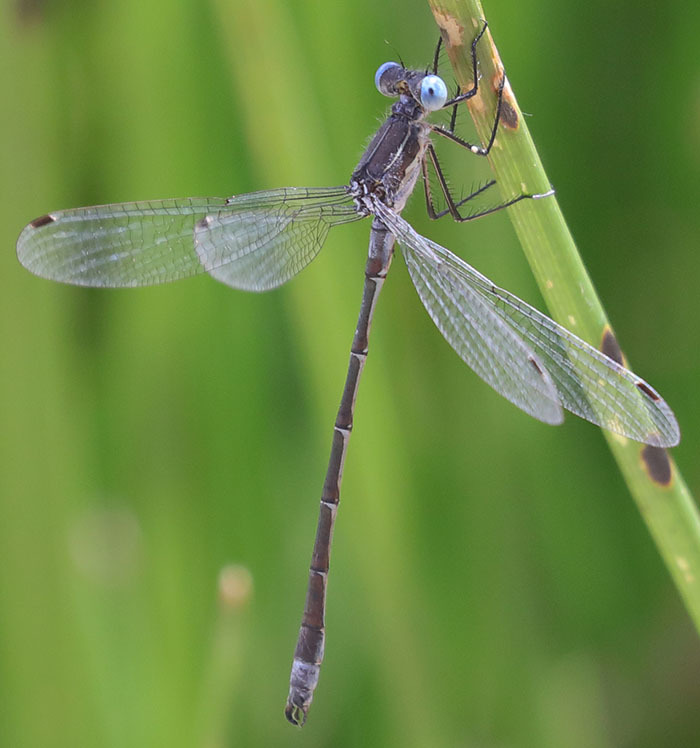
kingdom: Animalia
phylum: Arthropoda
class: Insecta
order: Odonata
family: Lestidae
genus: Lestes
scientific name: Lestes stultus
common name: Black spreadwing
